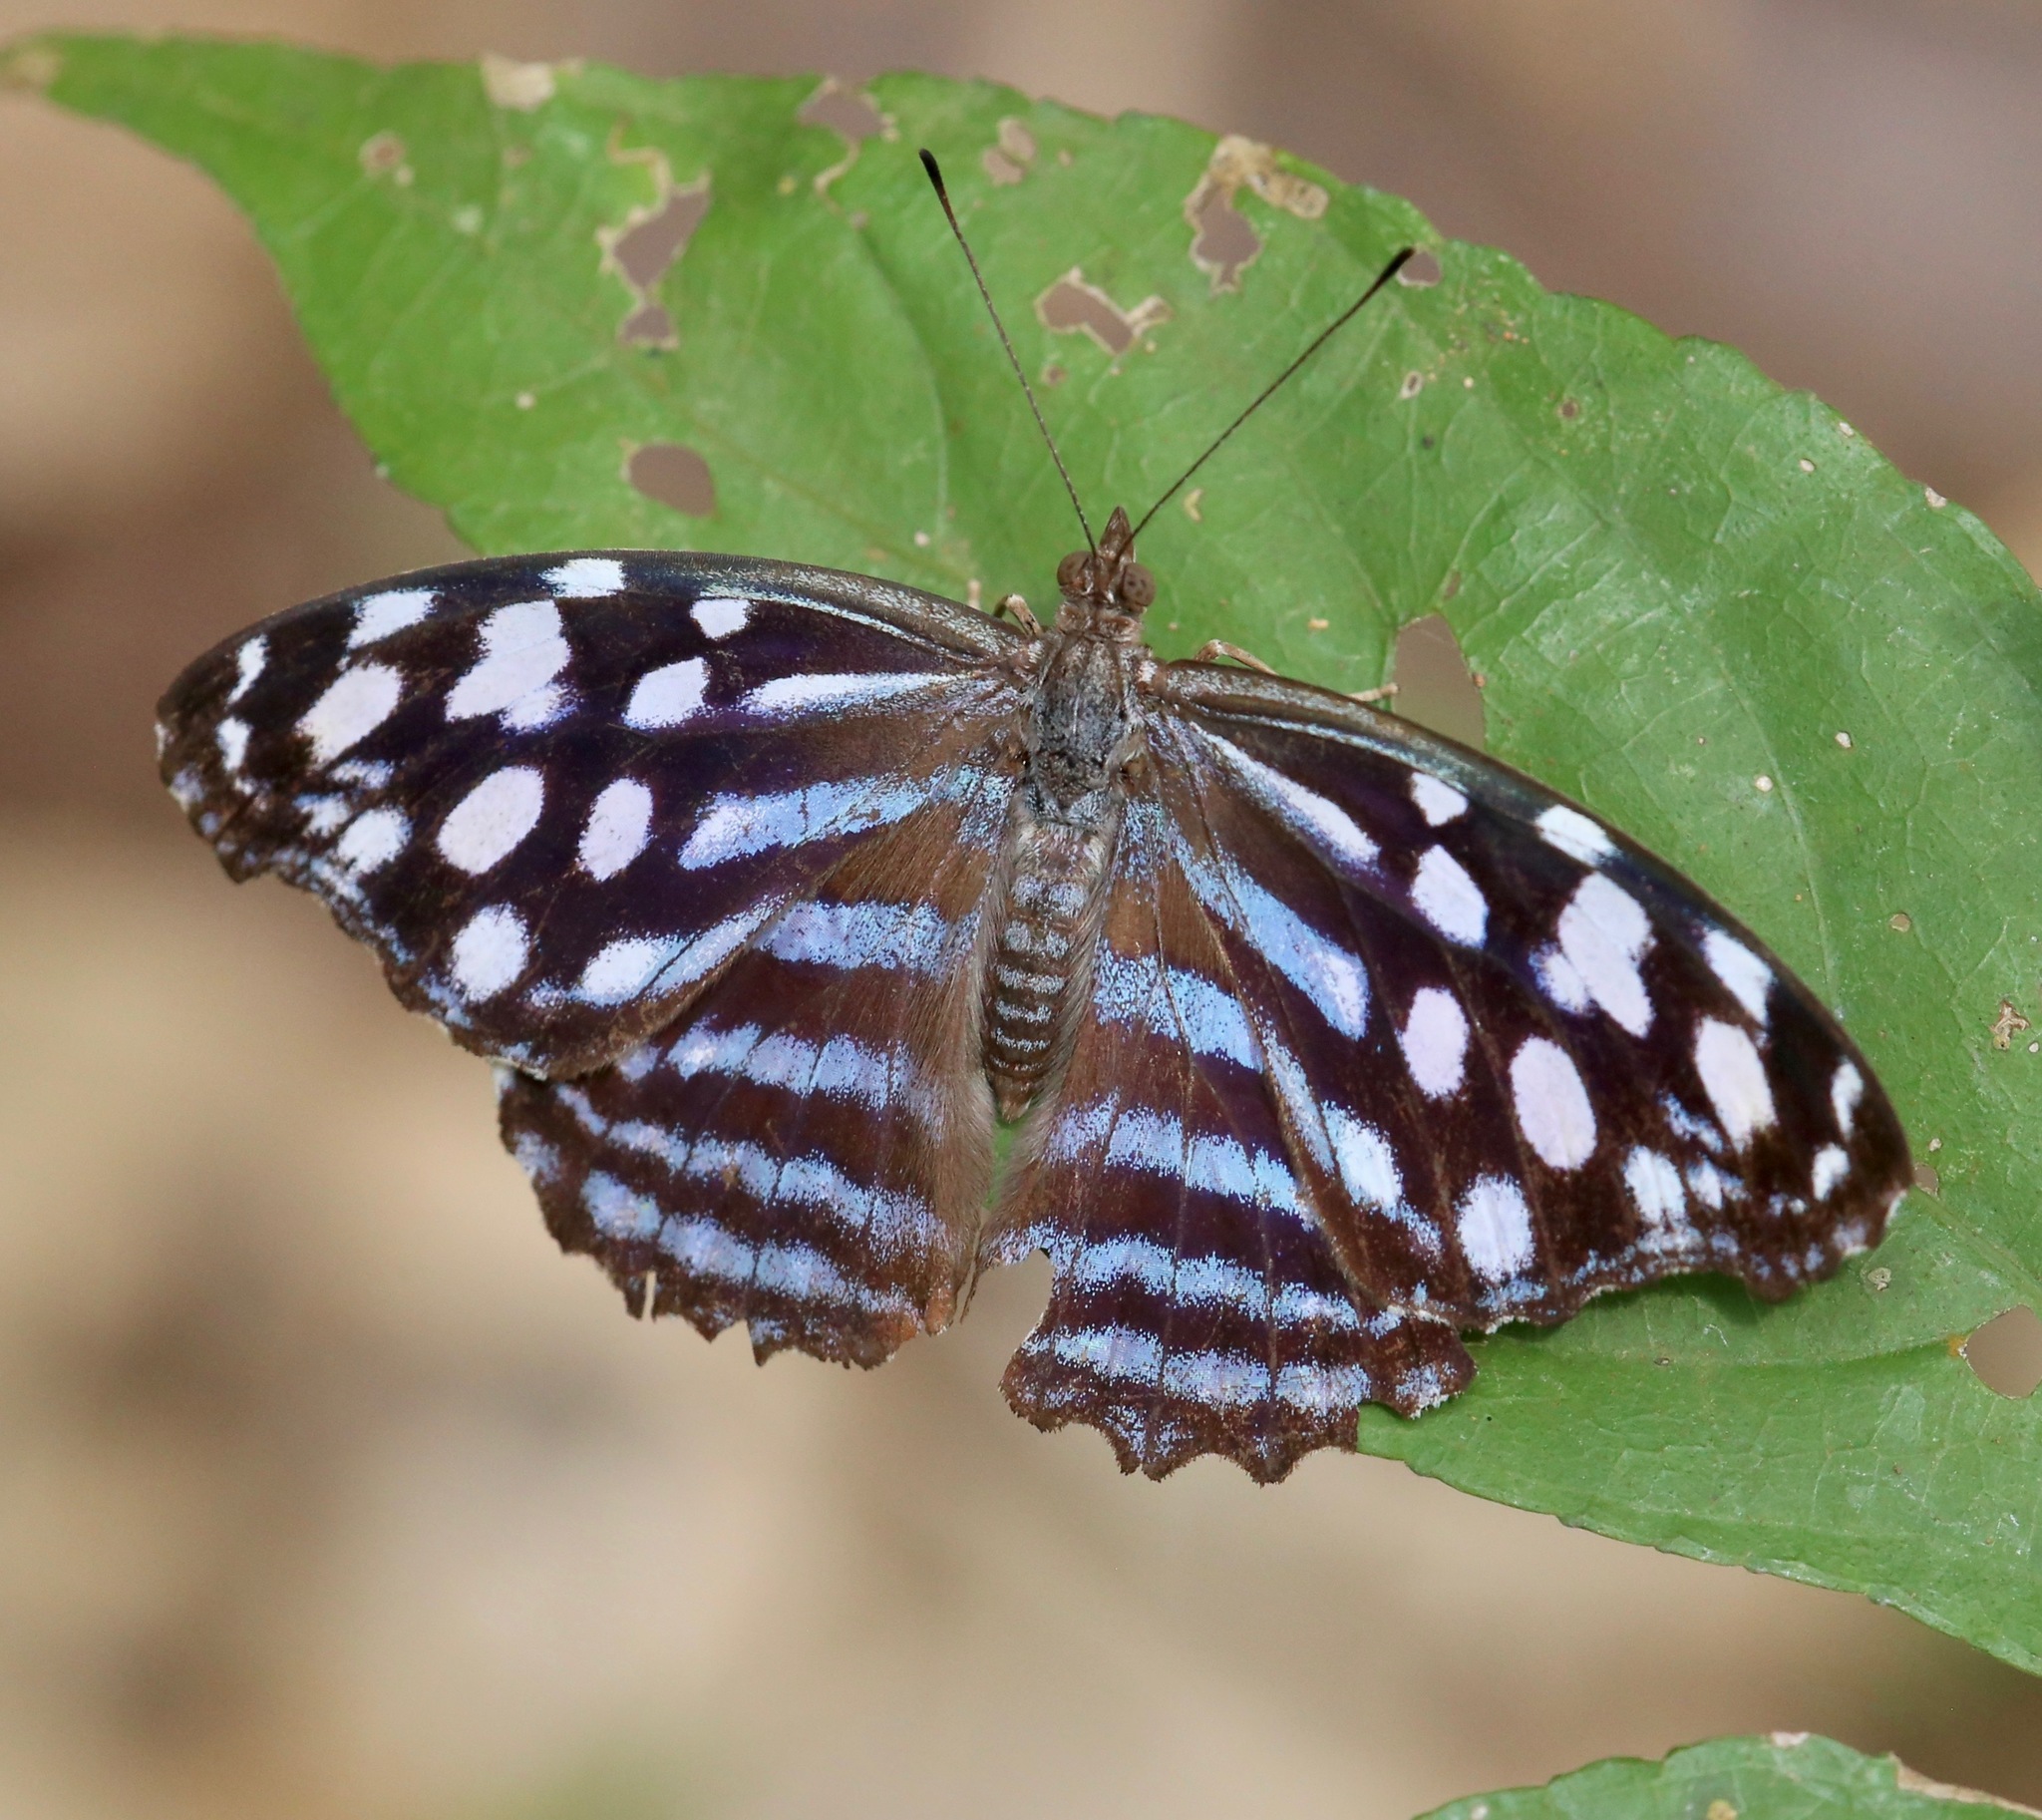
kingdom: Animalia
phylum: Arthropoda
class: Insecta
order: Lepidoptera
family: Nymphalidae
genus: Myscelia
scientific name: Myscelia leucocyana
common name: Pale bluewing
